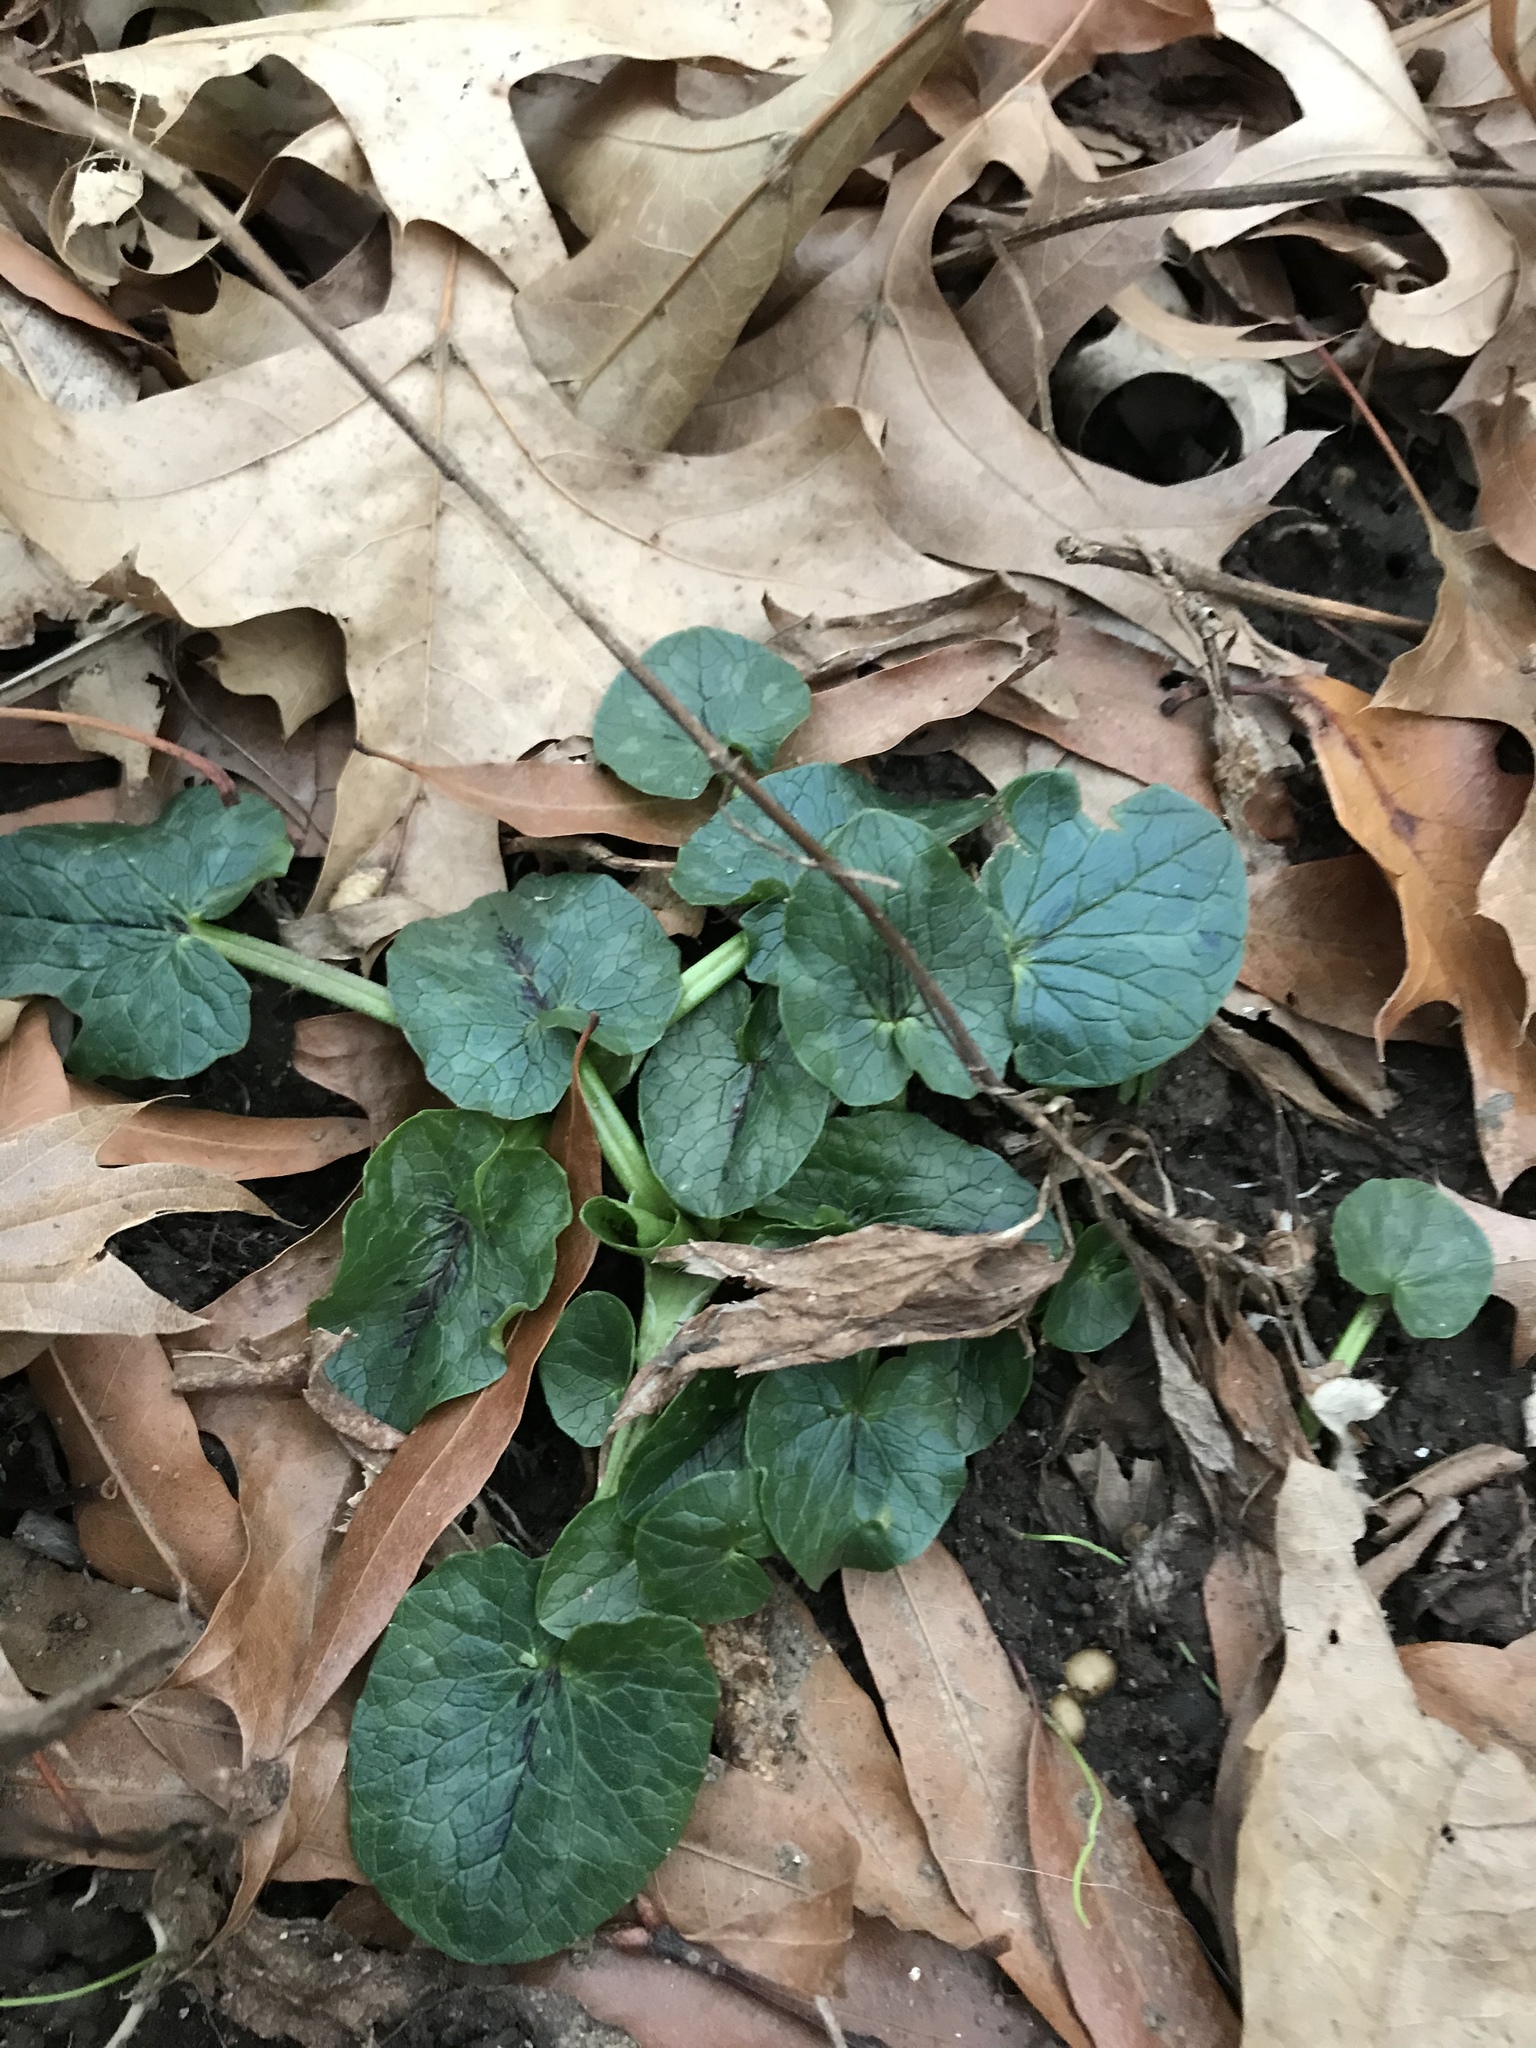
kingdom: Plantae
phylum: Tracheophyta
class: Magnoliopsida
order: Ranunculales
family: Ranunculaceae
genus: Ficaria
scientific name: Ficaria verna
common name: Lesser celandine
